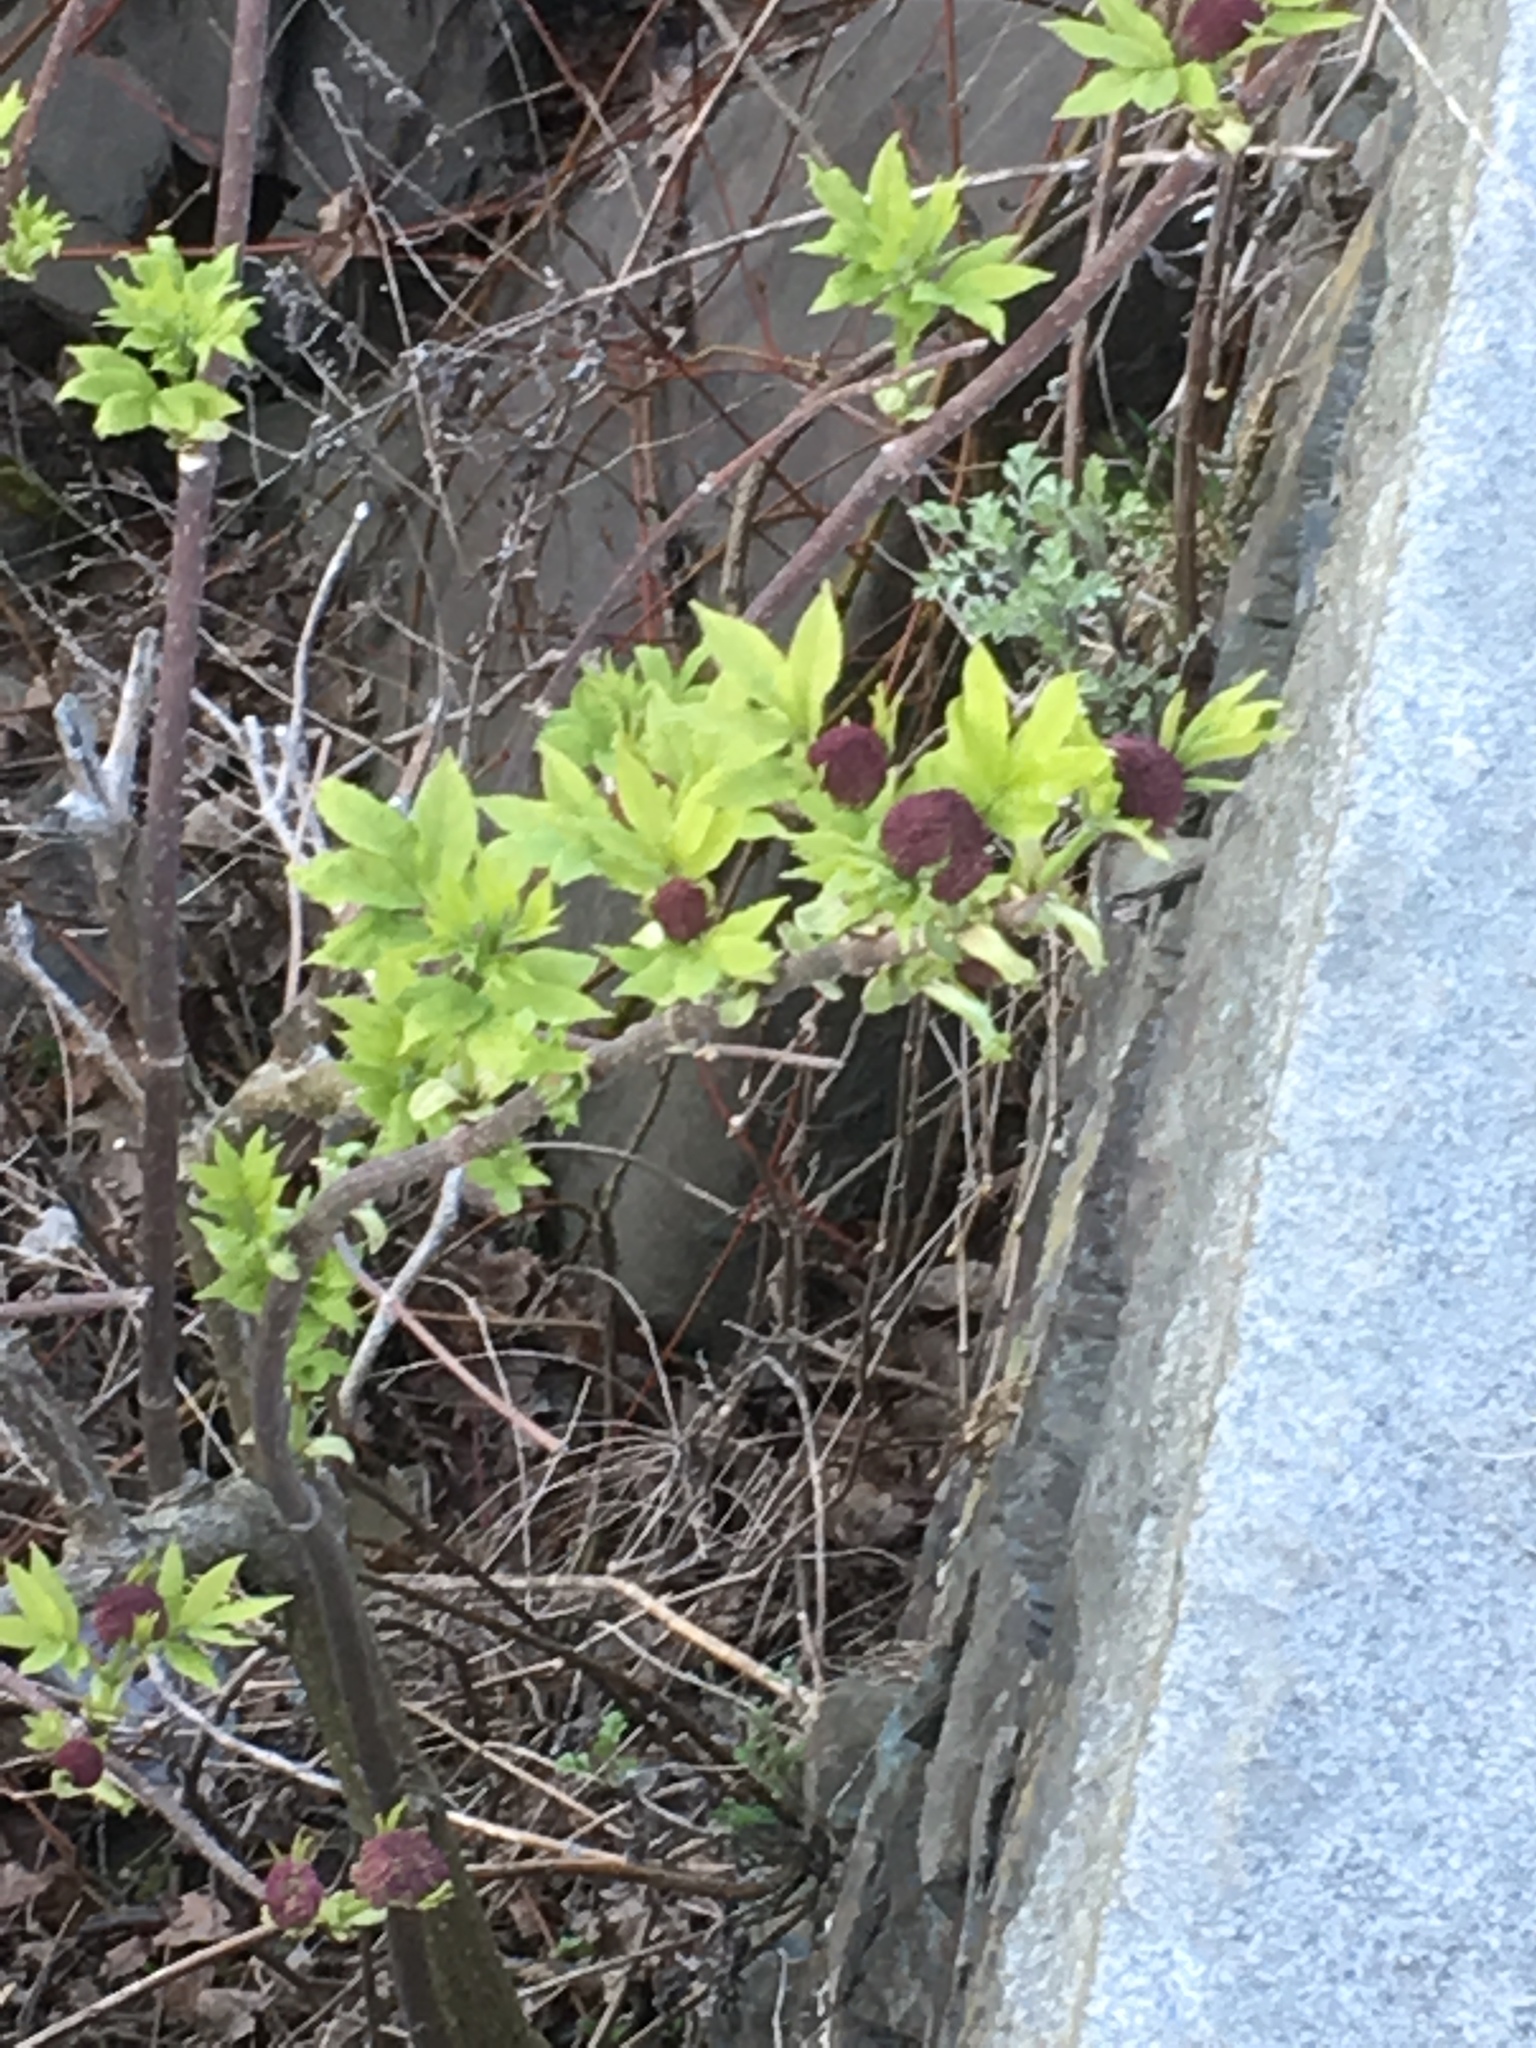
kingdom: Plantae
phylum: Tracheophyta
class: Magnoliopsida
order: Dipsacales
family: Viburnaceae
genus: Sambucus
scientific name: Sambucus racemosa
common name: Red-berried elder
